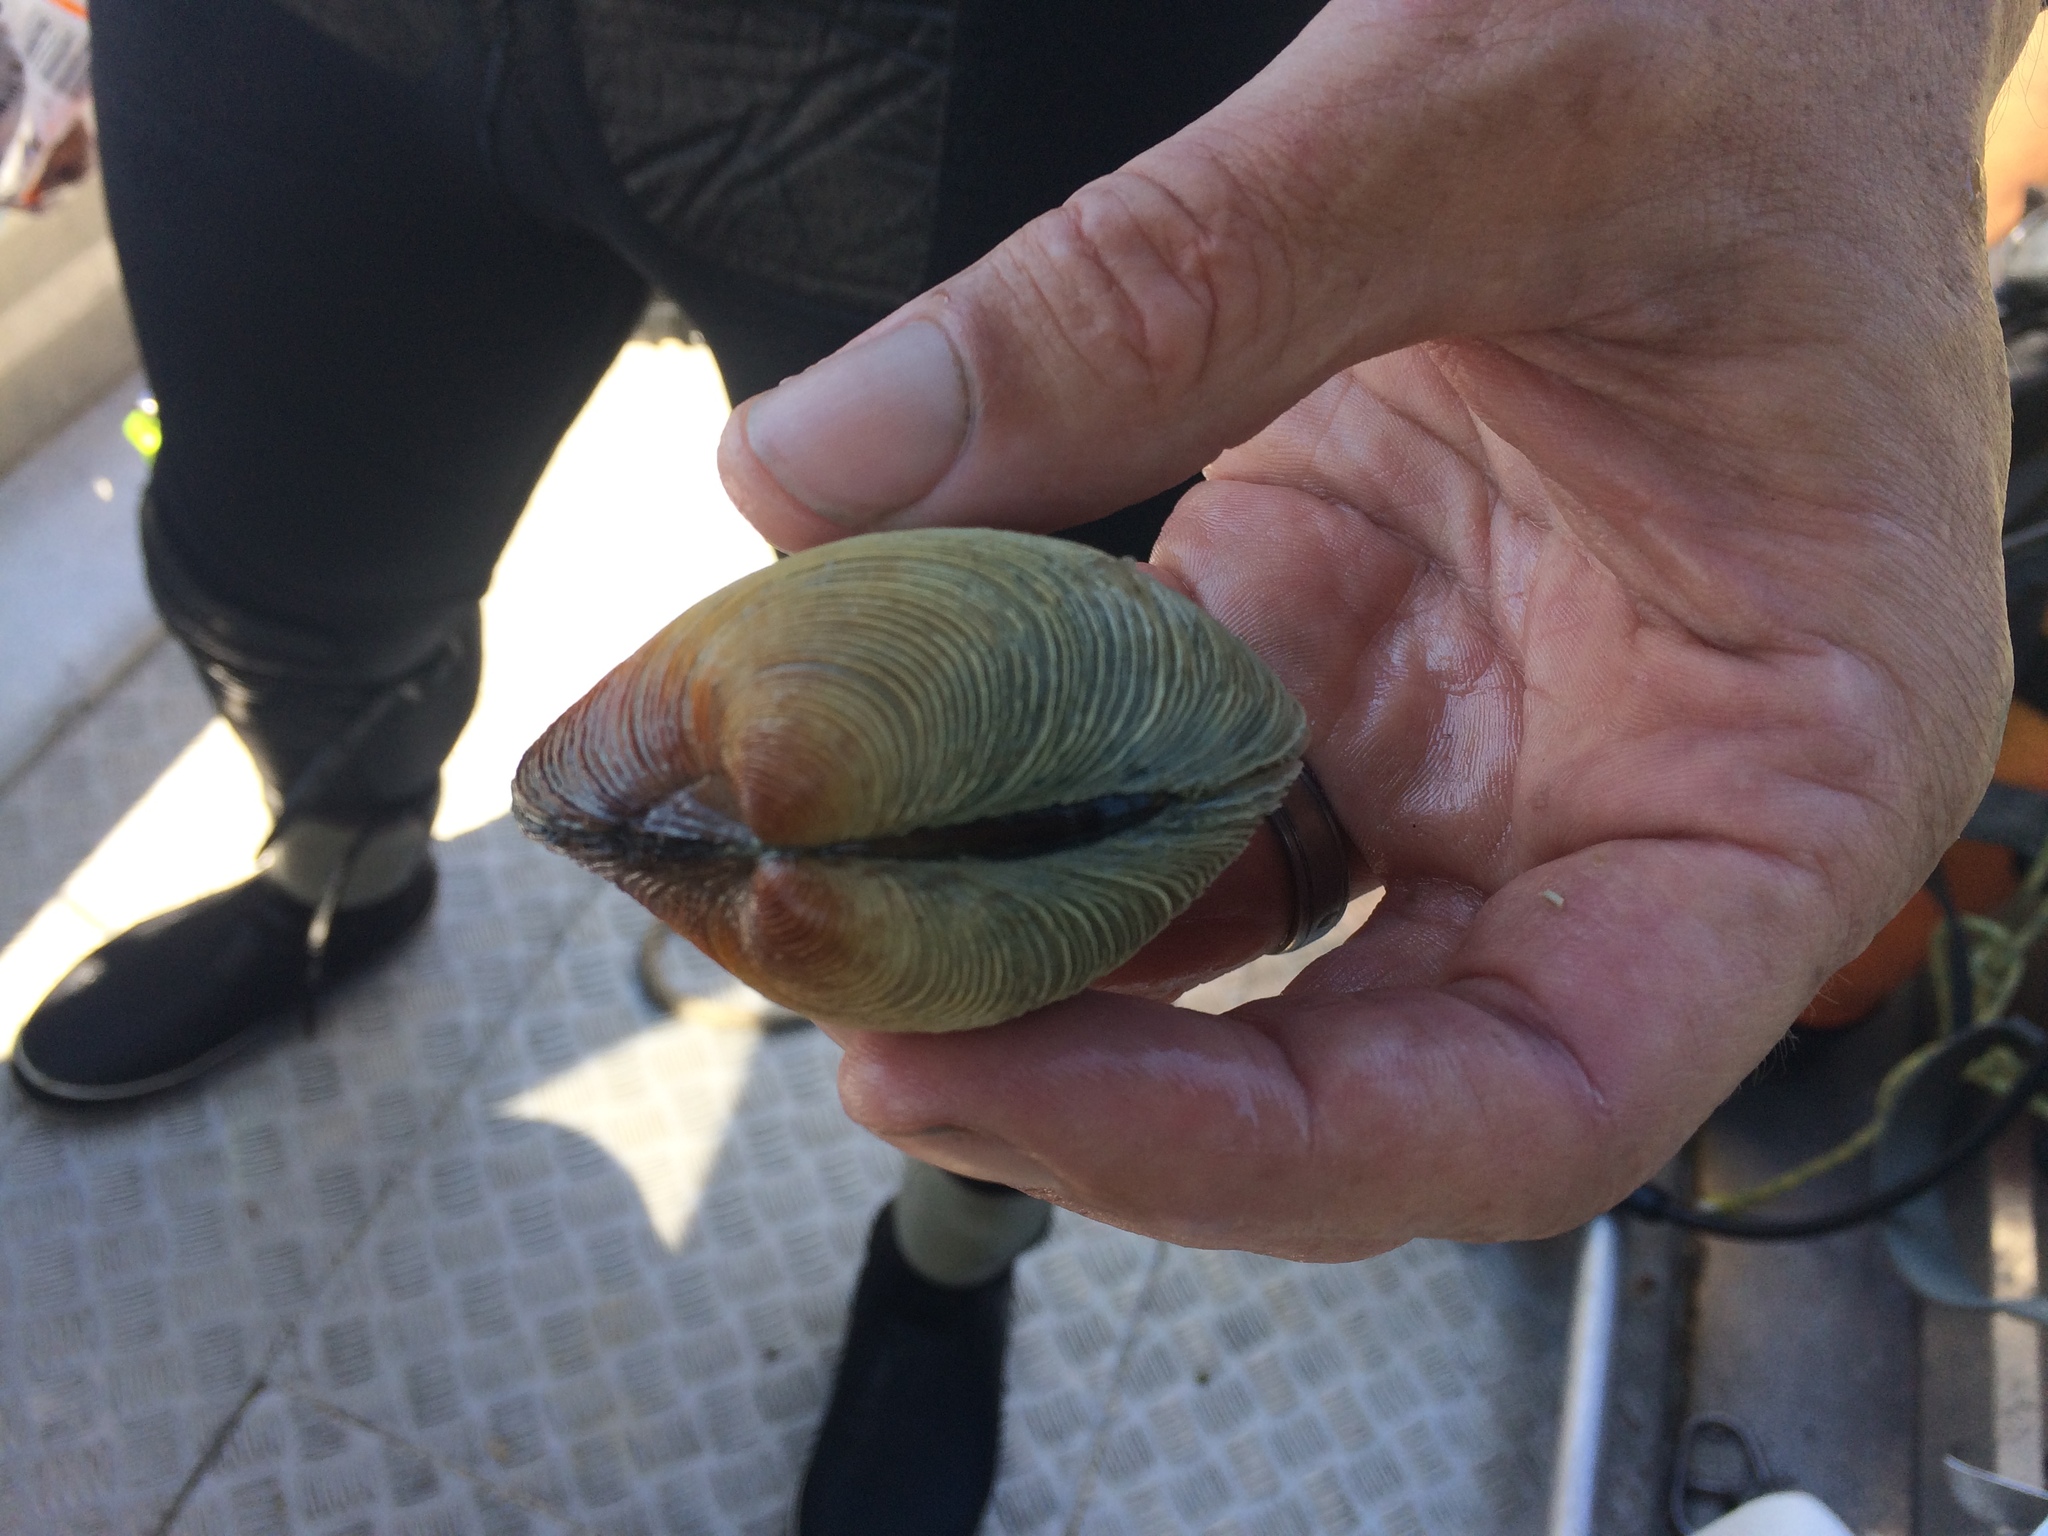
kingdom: Animalia
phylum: Mollusca
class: Bivalvia
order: Venerida
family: Veneridae
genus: Dosina
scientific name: Dosina mactracea
